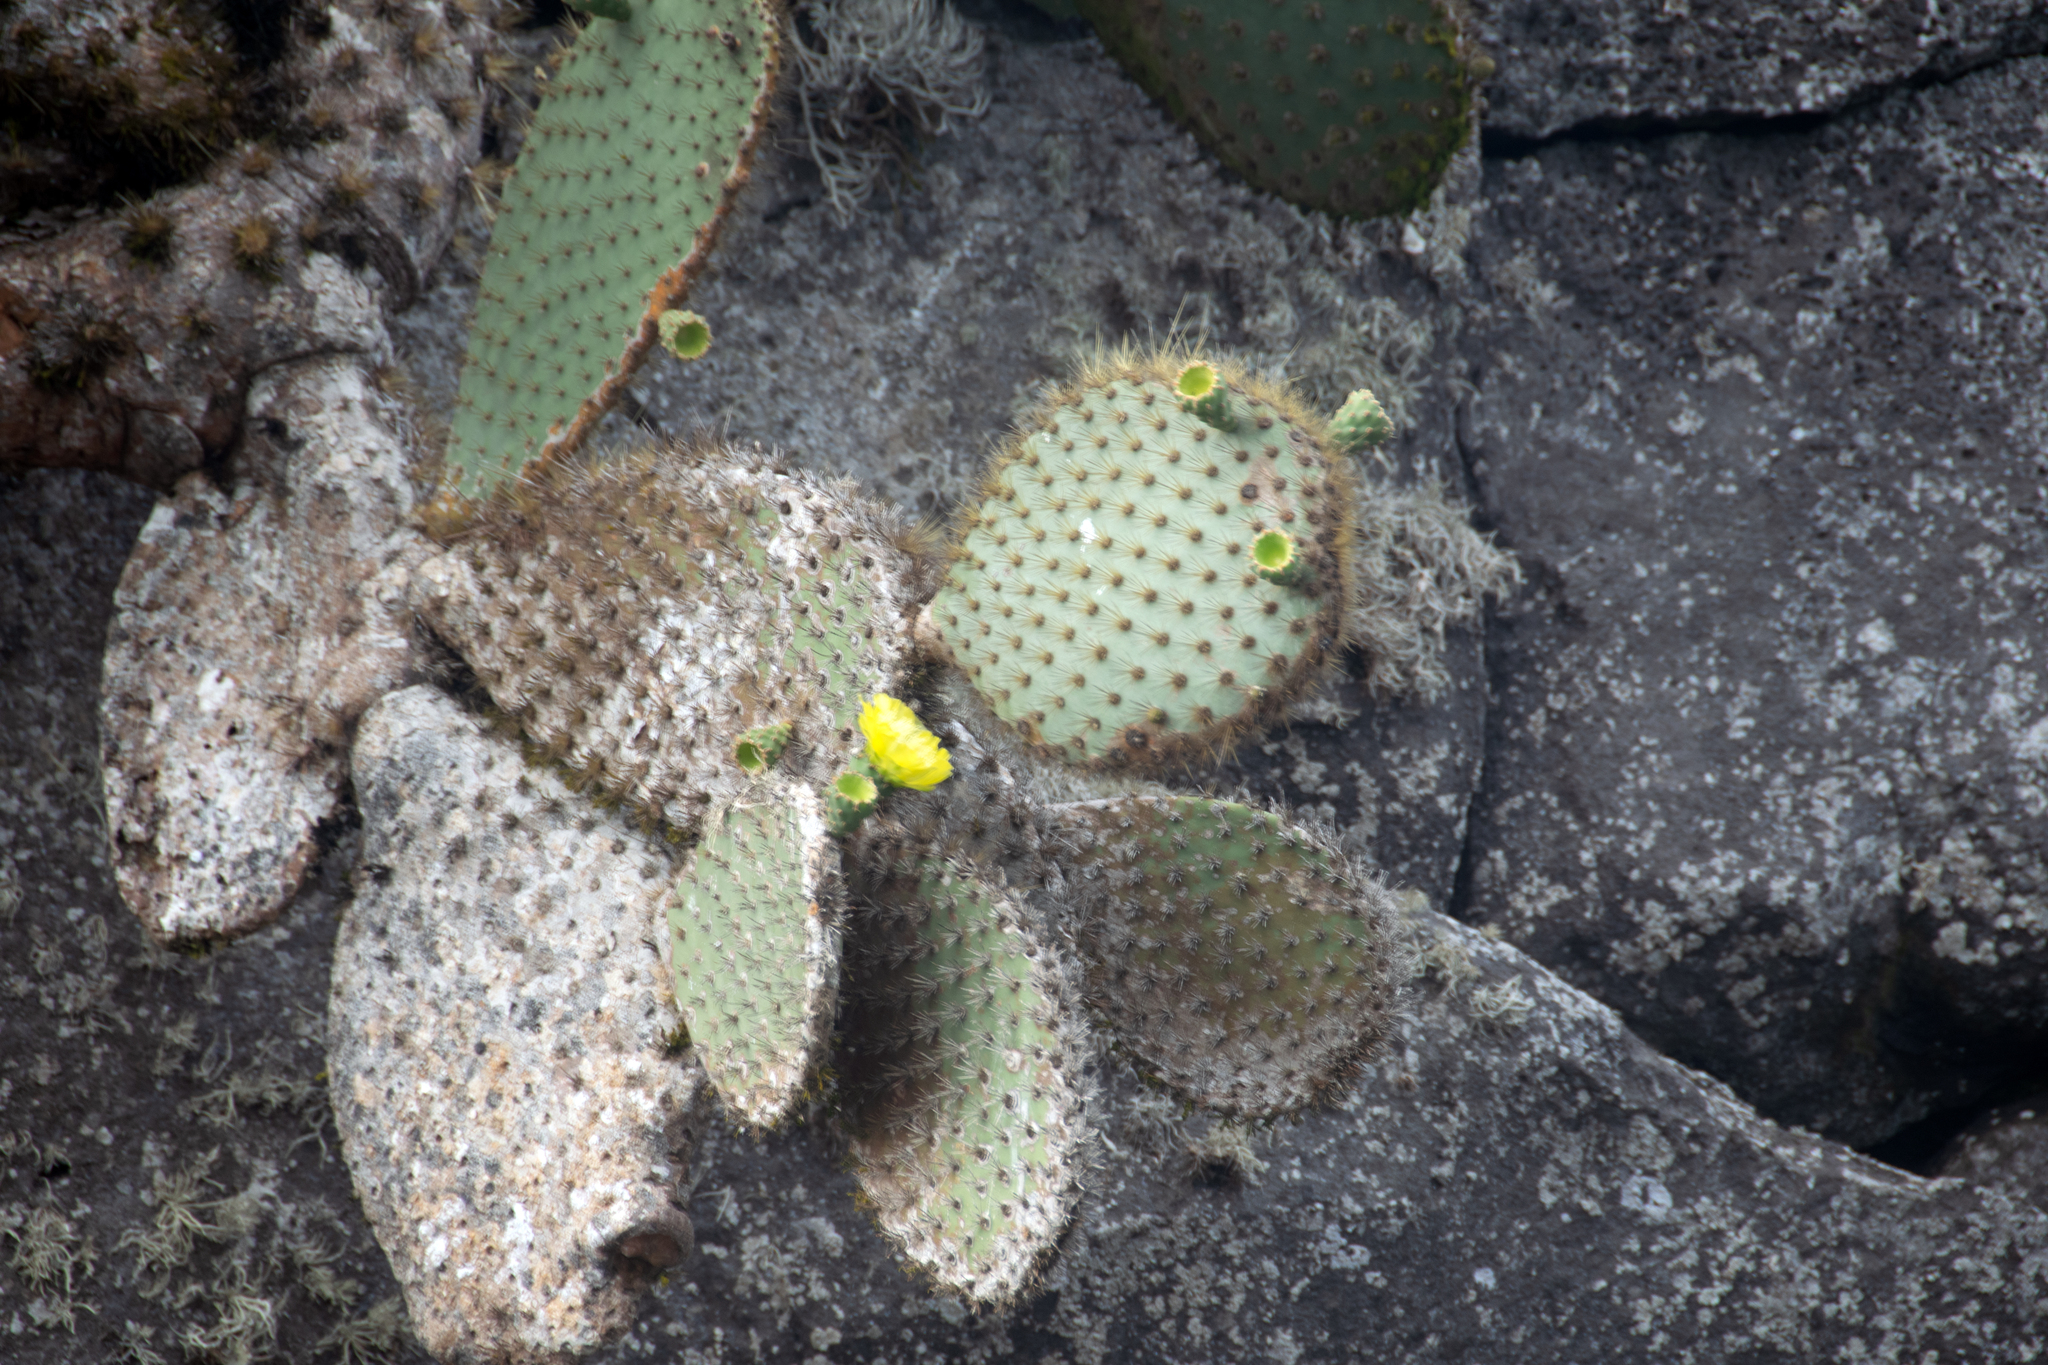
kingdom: Plantae
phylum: Tracheophyta
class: Magnoliopsida
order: Caryophyllales
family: Cactaceae
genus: Opuntia
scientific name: Opuntia galapageia
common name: Galápagos prickly pear
